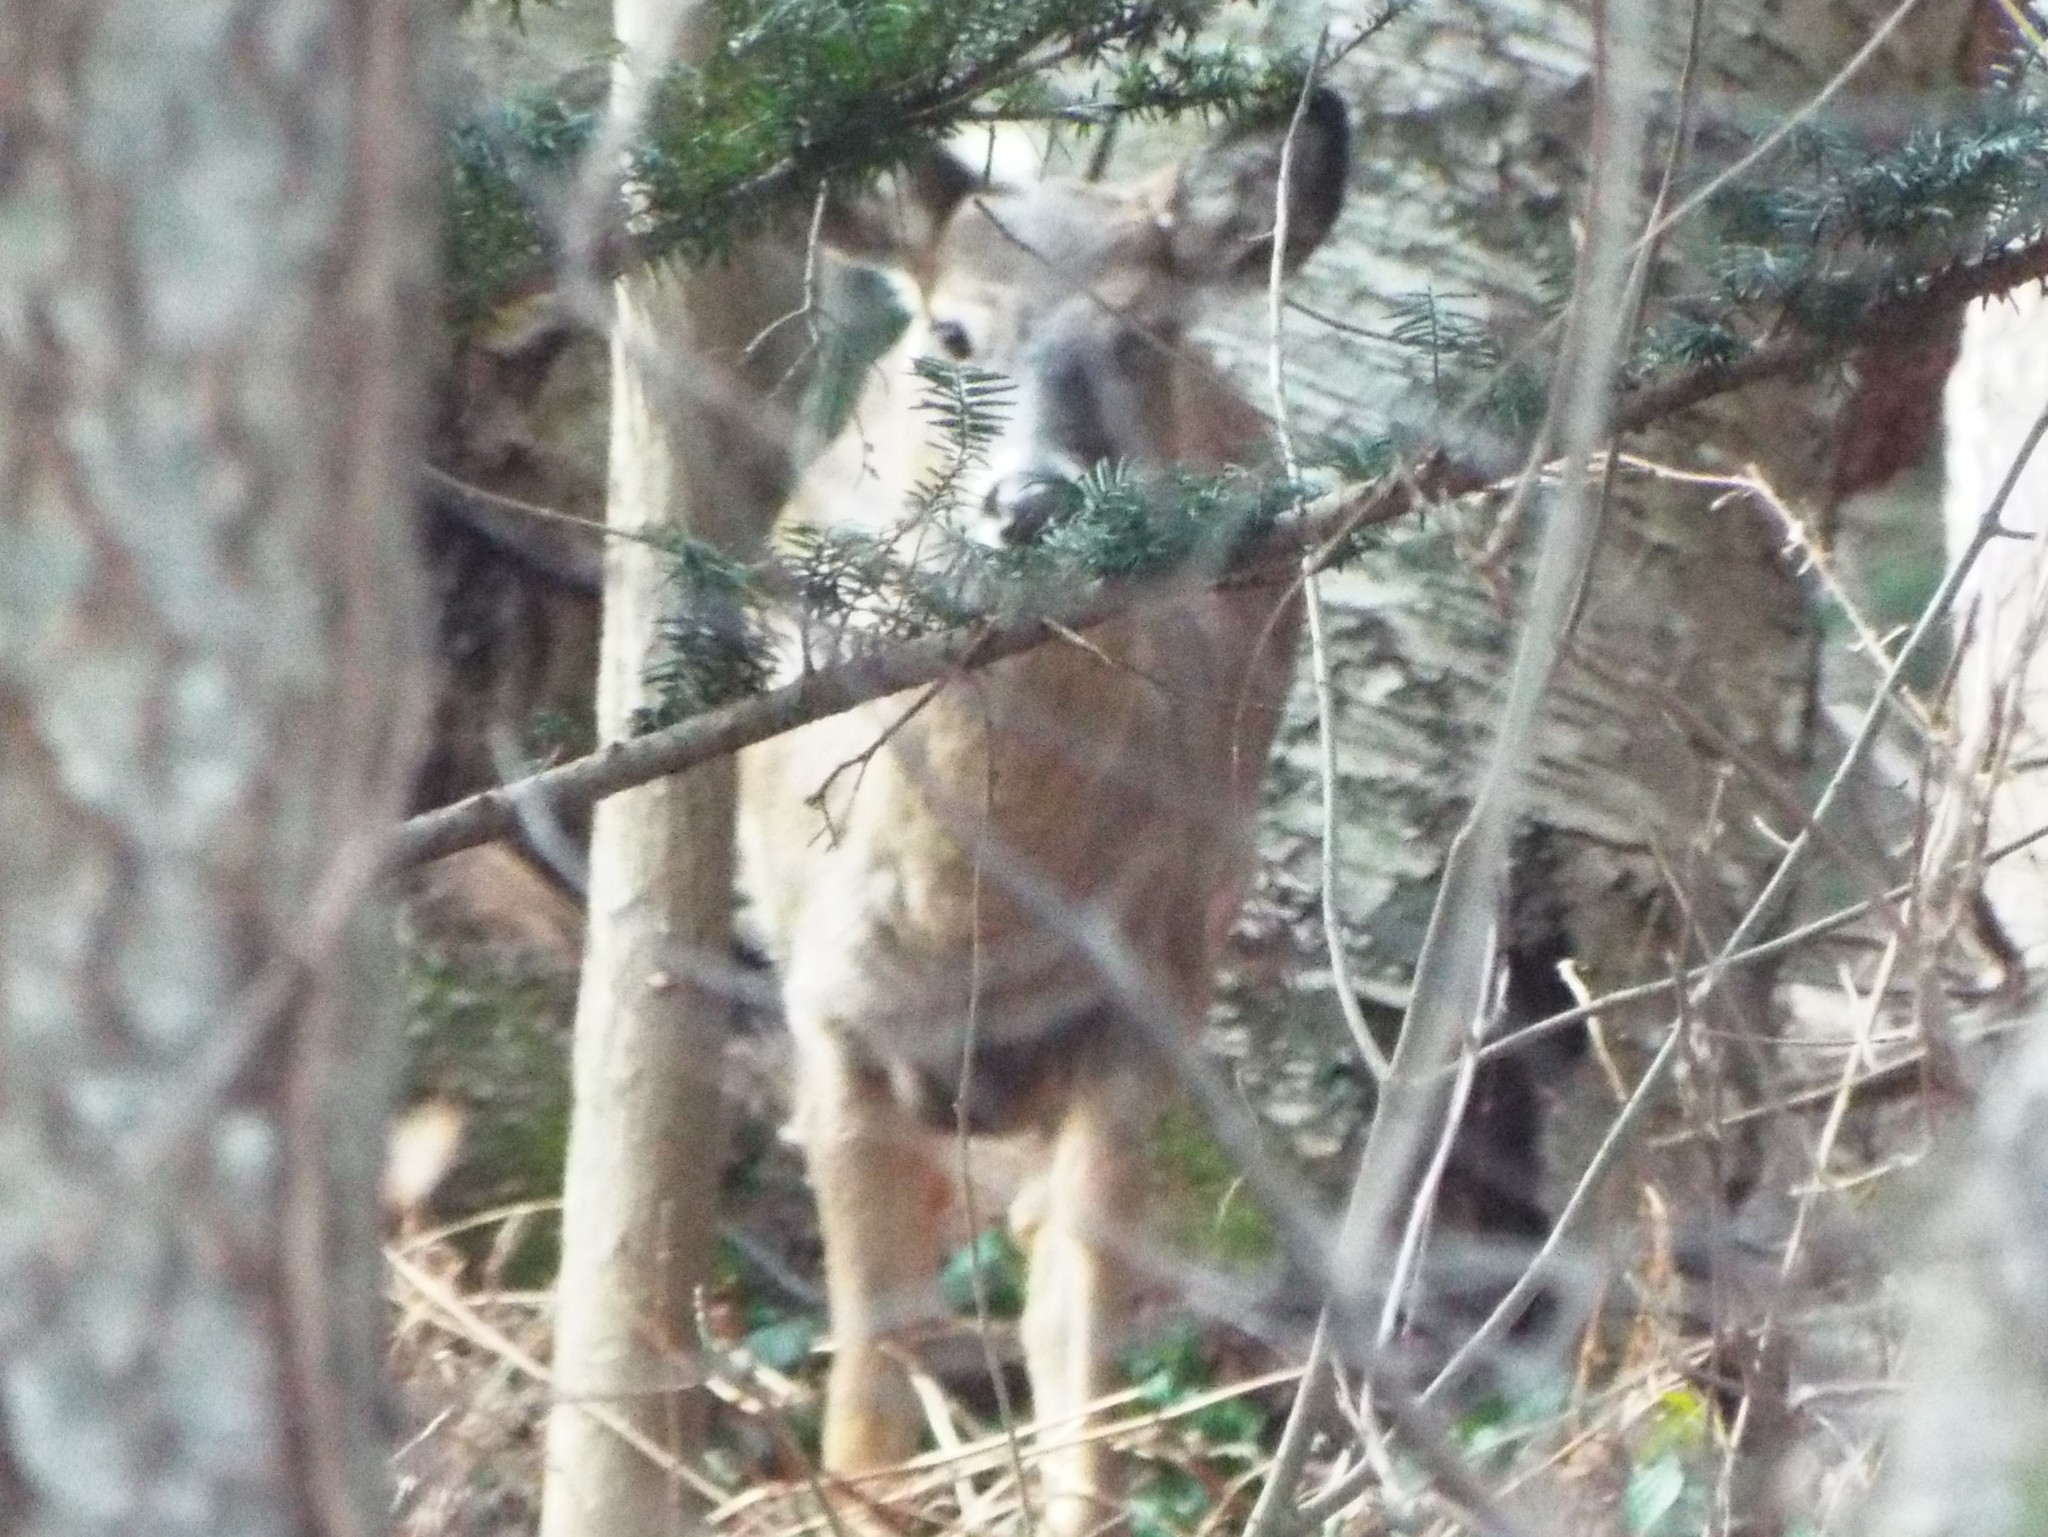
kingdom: Animalia
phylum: Chordata
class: Mammalia
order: Artiodactyla
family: Cervidae
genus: Odocoileus
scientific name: Odocoileus virginianus
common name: White-tailed deer
